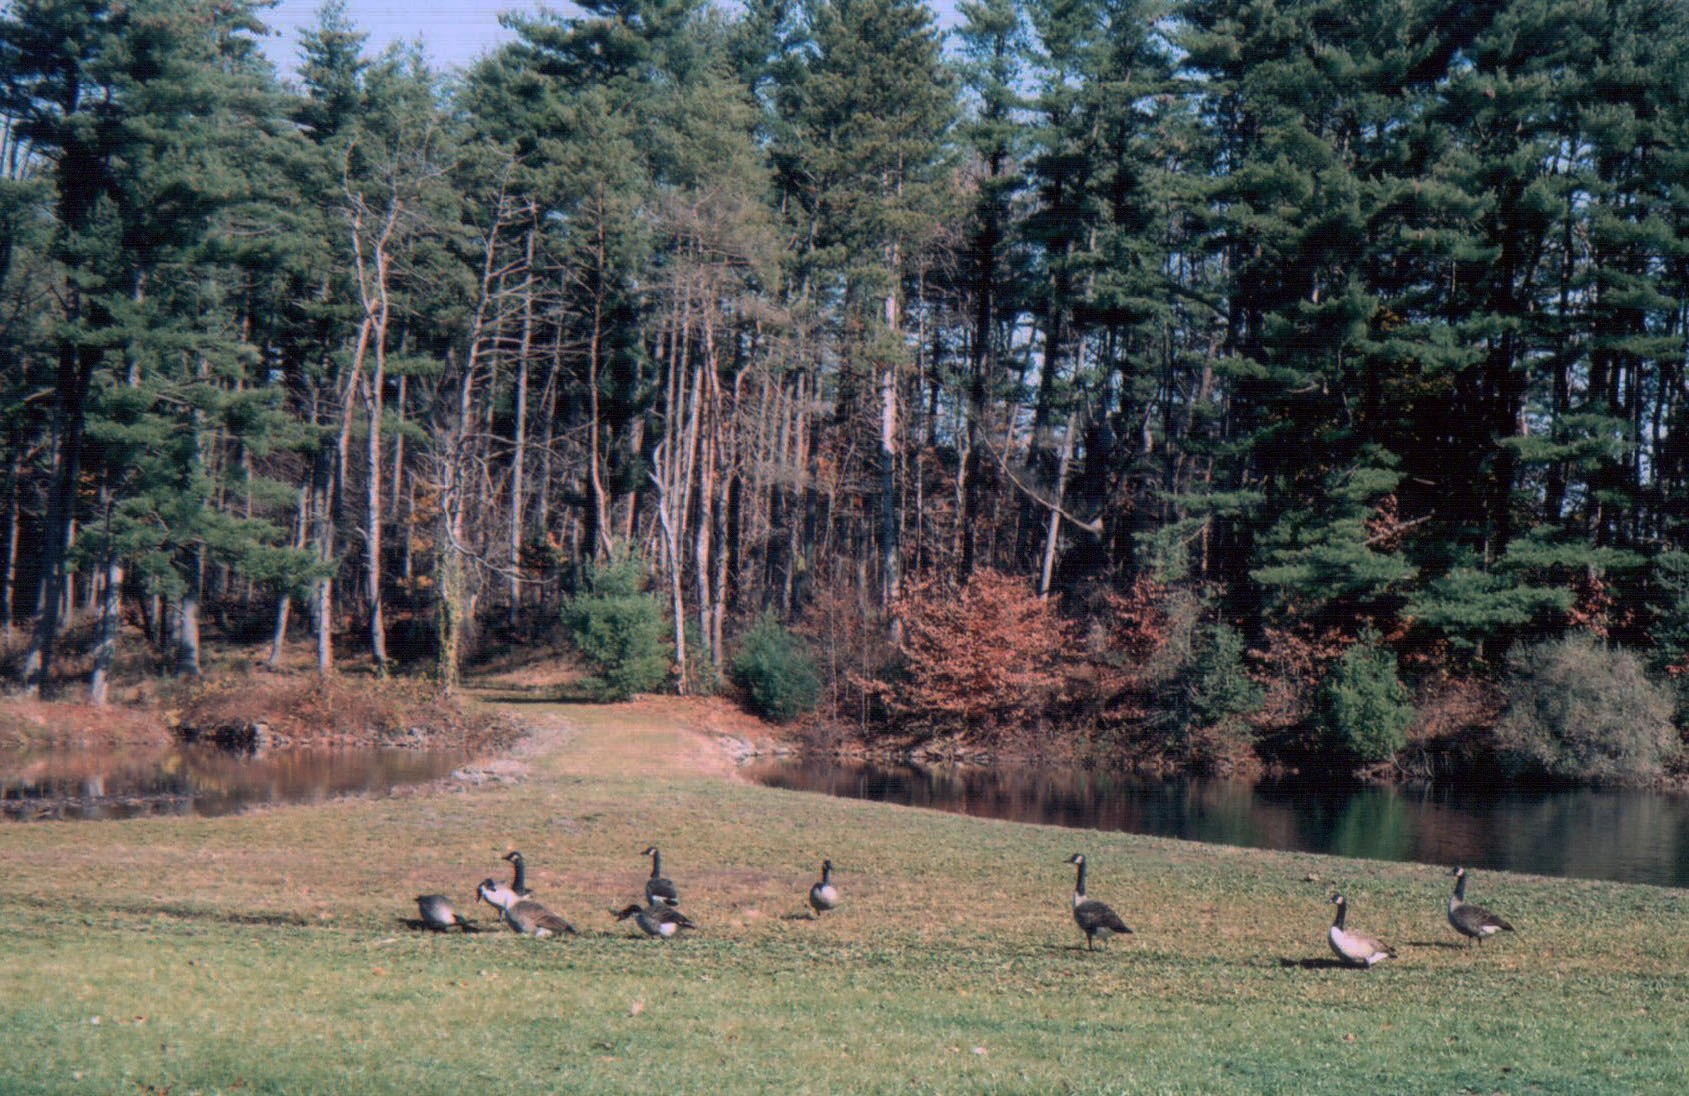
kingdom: Animalia
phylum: Chordata
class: Aves
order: Anseriformes
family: Anatidae
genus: Branta
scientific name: Branta canadensis
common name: Canada goose
